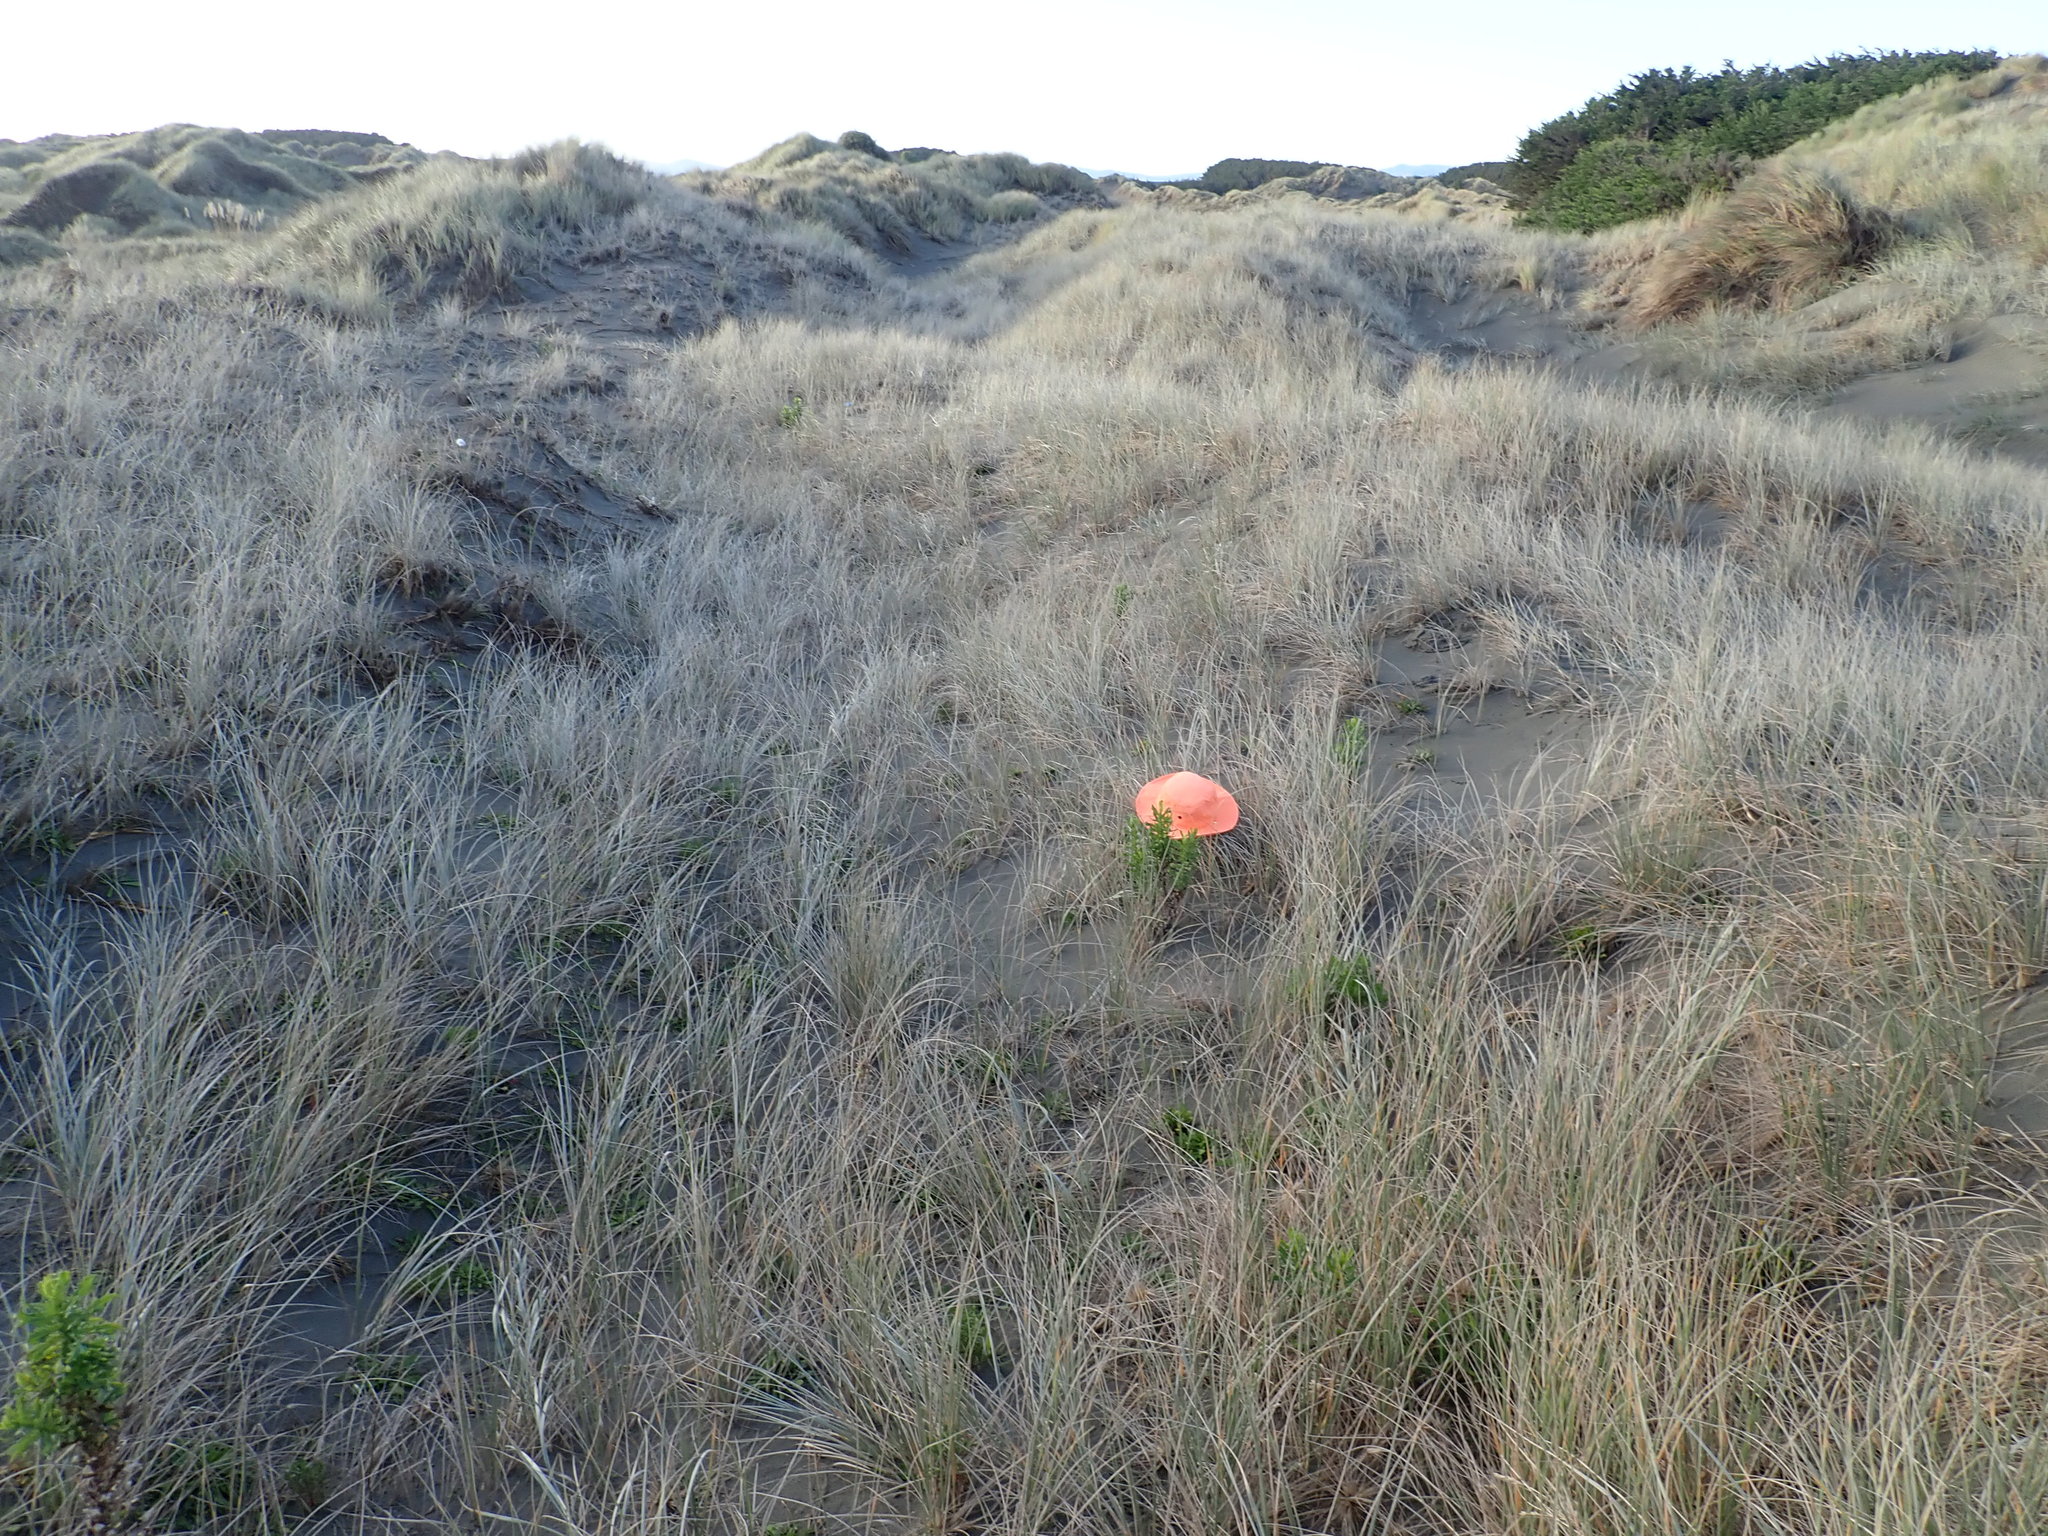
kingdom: Plantae
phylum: Tracheophyta
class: Magnoliopsida
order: Asterales
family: Asteraceae
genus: Senecio
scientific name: Senecio glastifolius
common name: Woad-leaved ragwort
